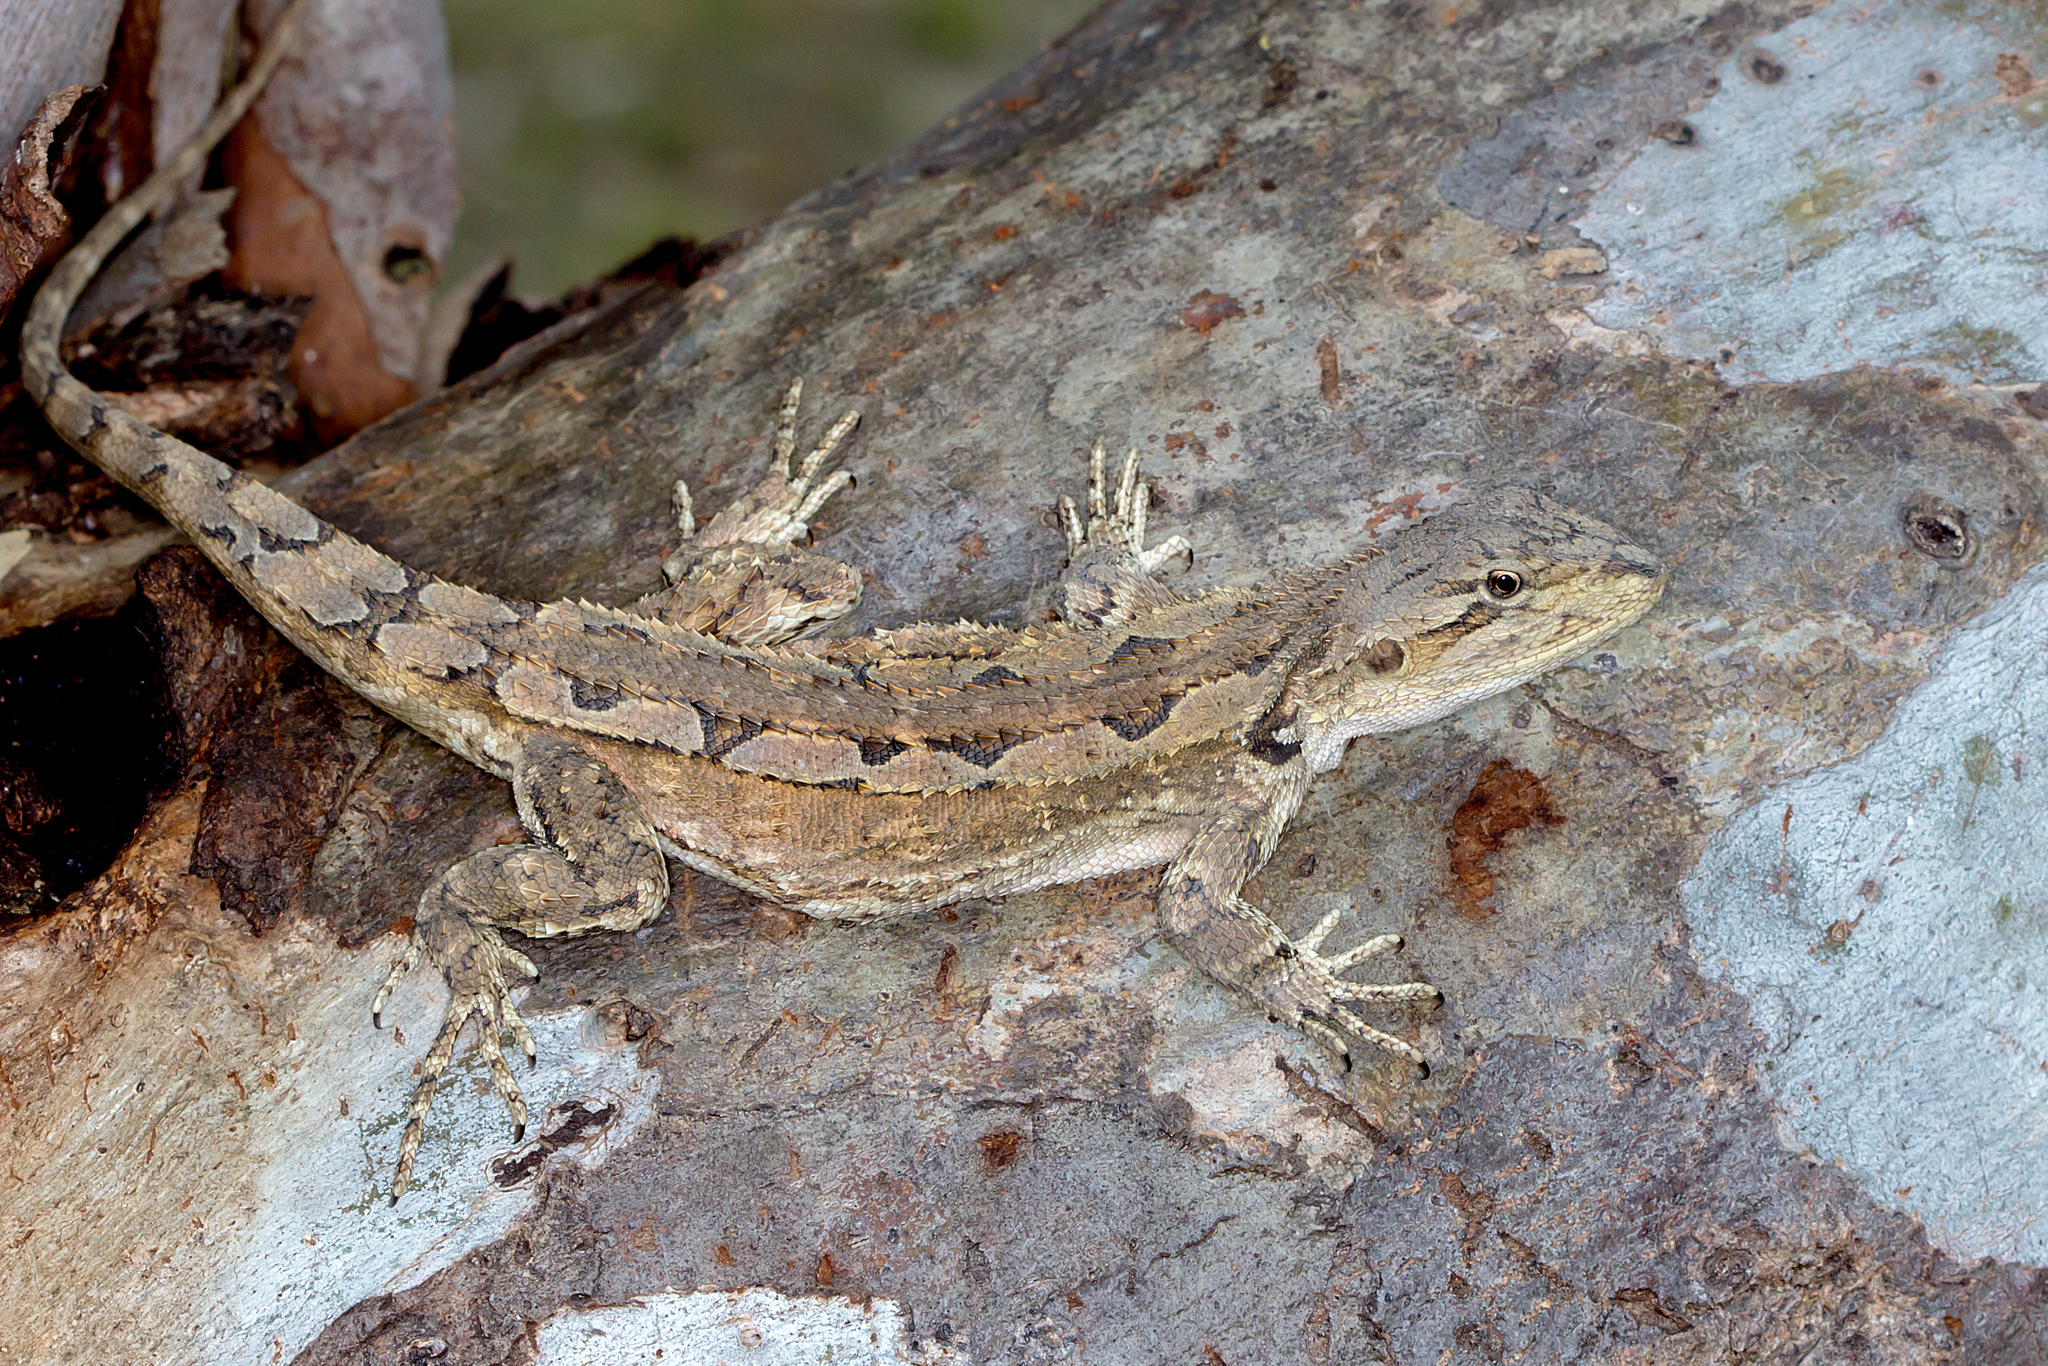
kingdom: Animalia
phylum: Chordata
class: Squamata
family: Agamidae
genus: Amphibolurus
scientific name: Amphibolurus muricatus
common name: Jacky lizard
